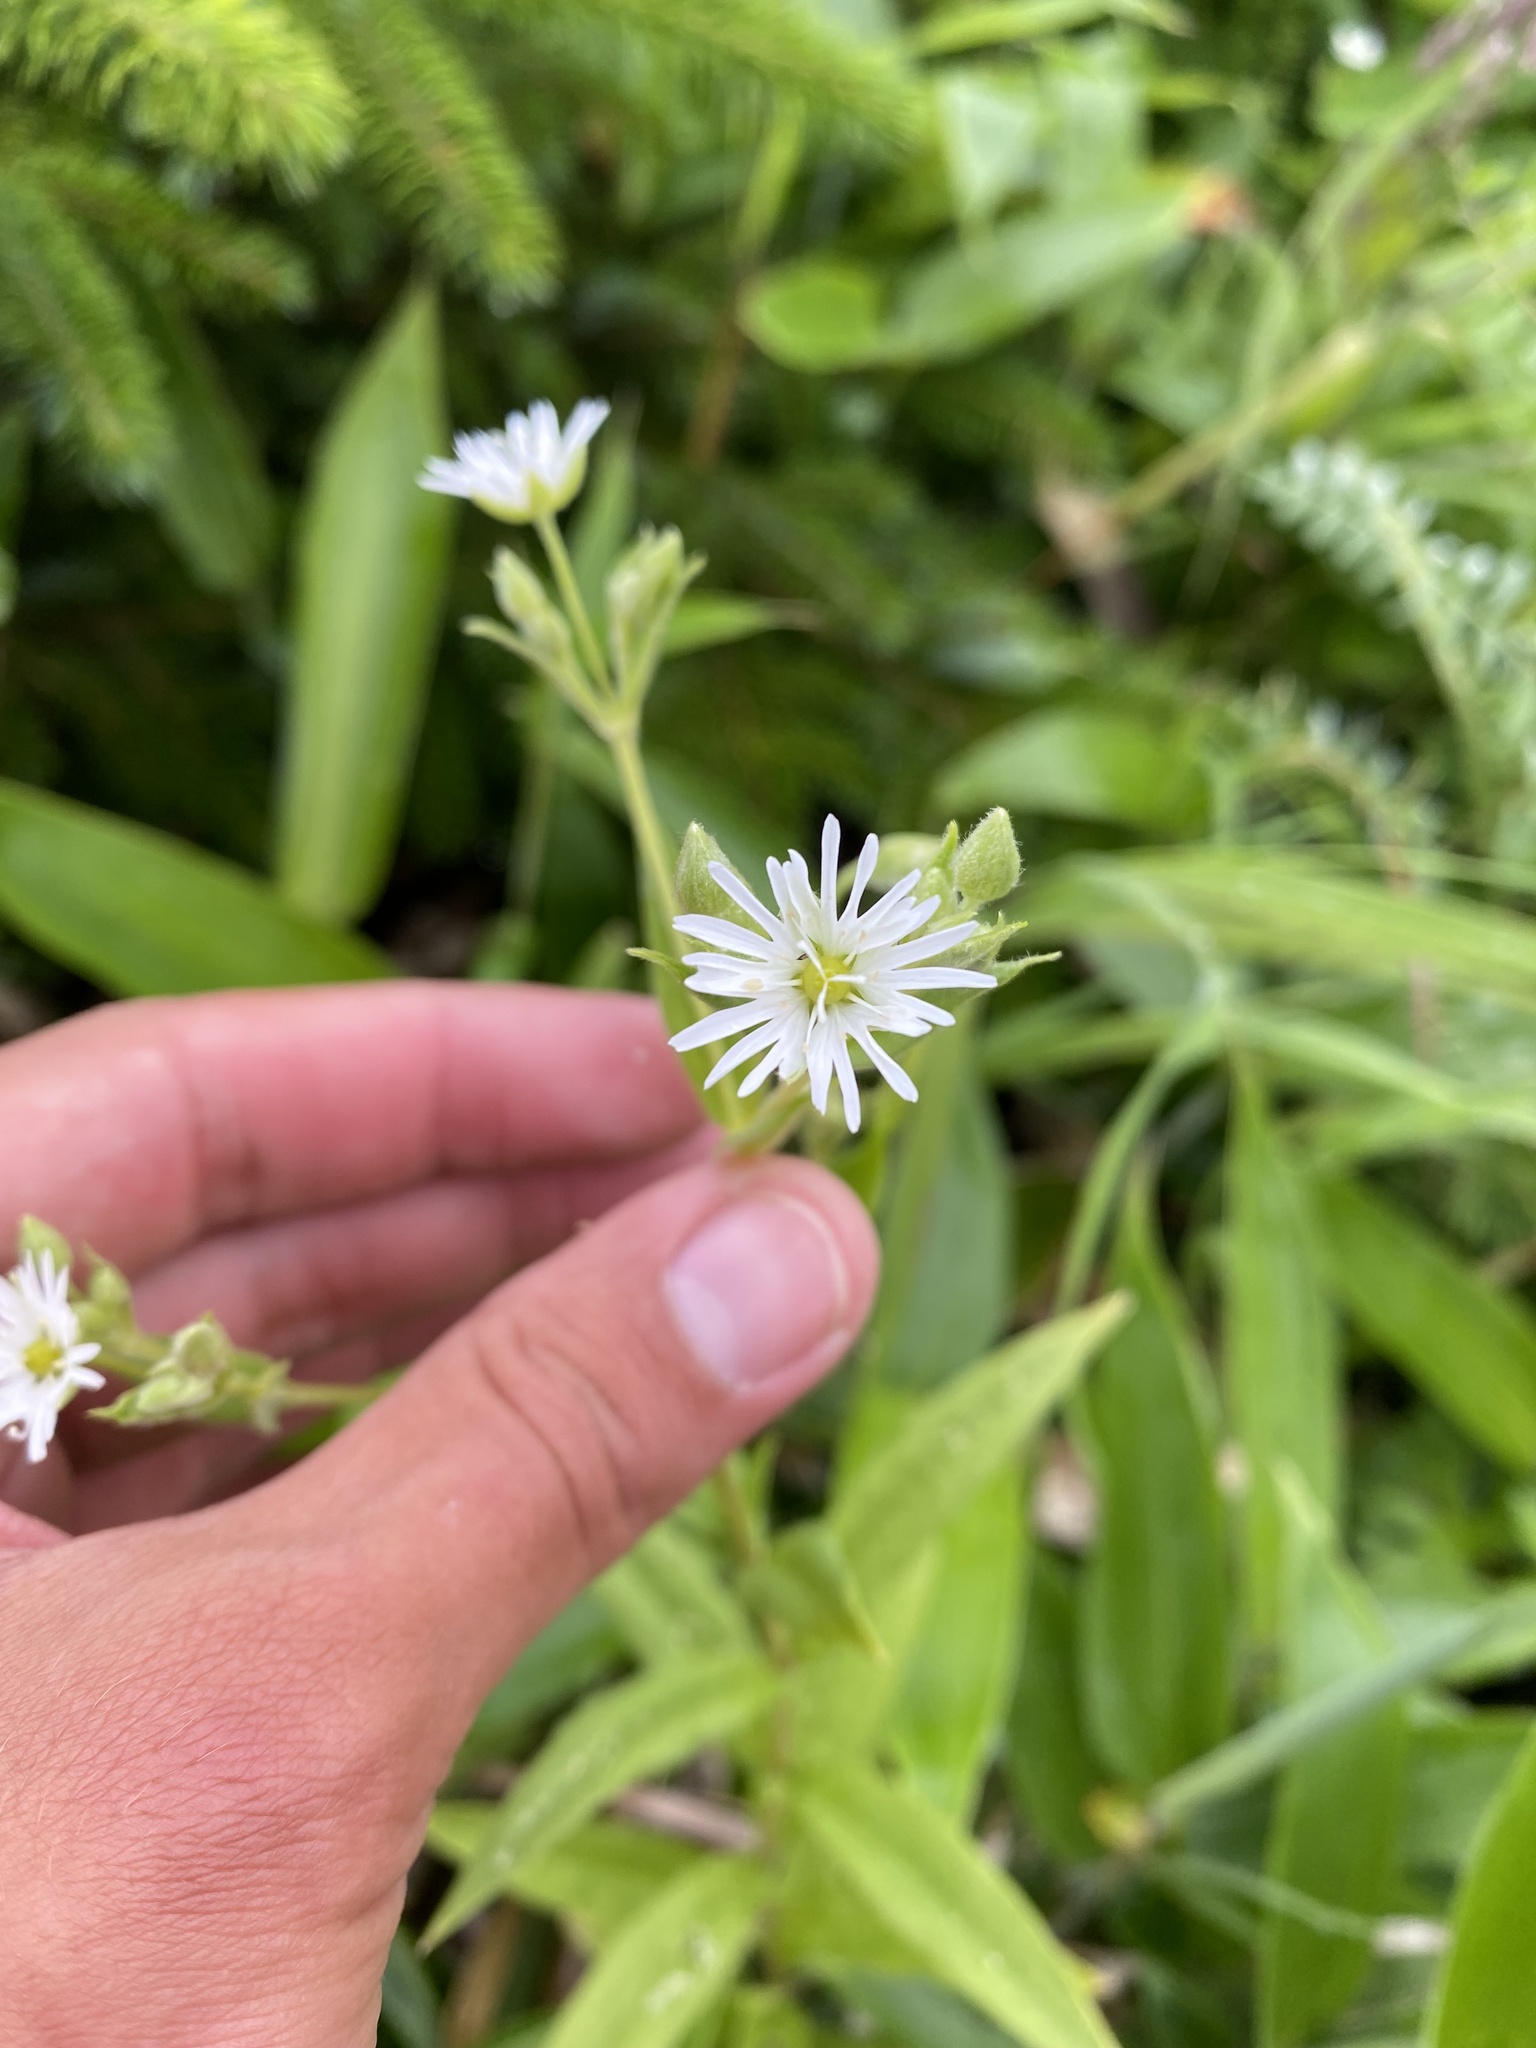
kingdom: Plantae
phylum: Tracheophyta
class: Magnoliopsida
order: Caryophyllales
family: Caryophyllaceae
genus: Stellaria
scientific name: Stellaria radians
